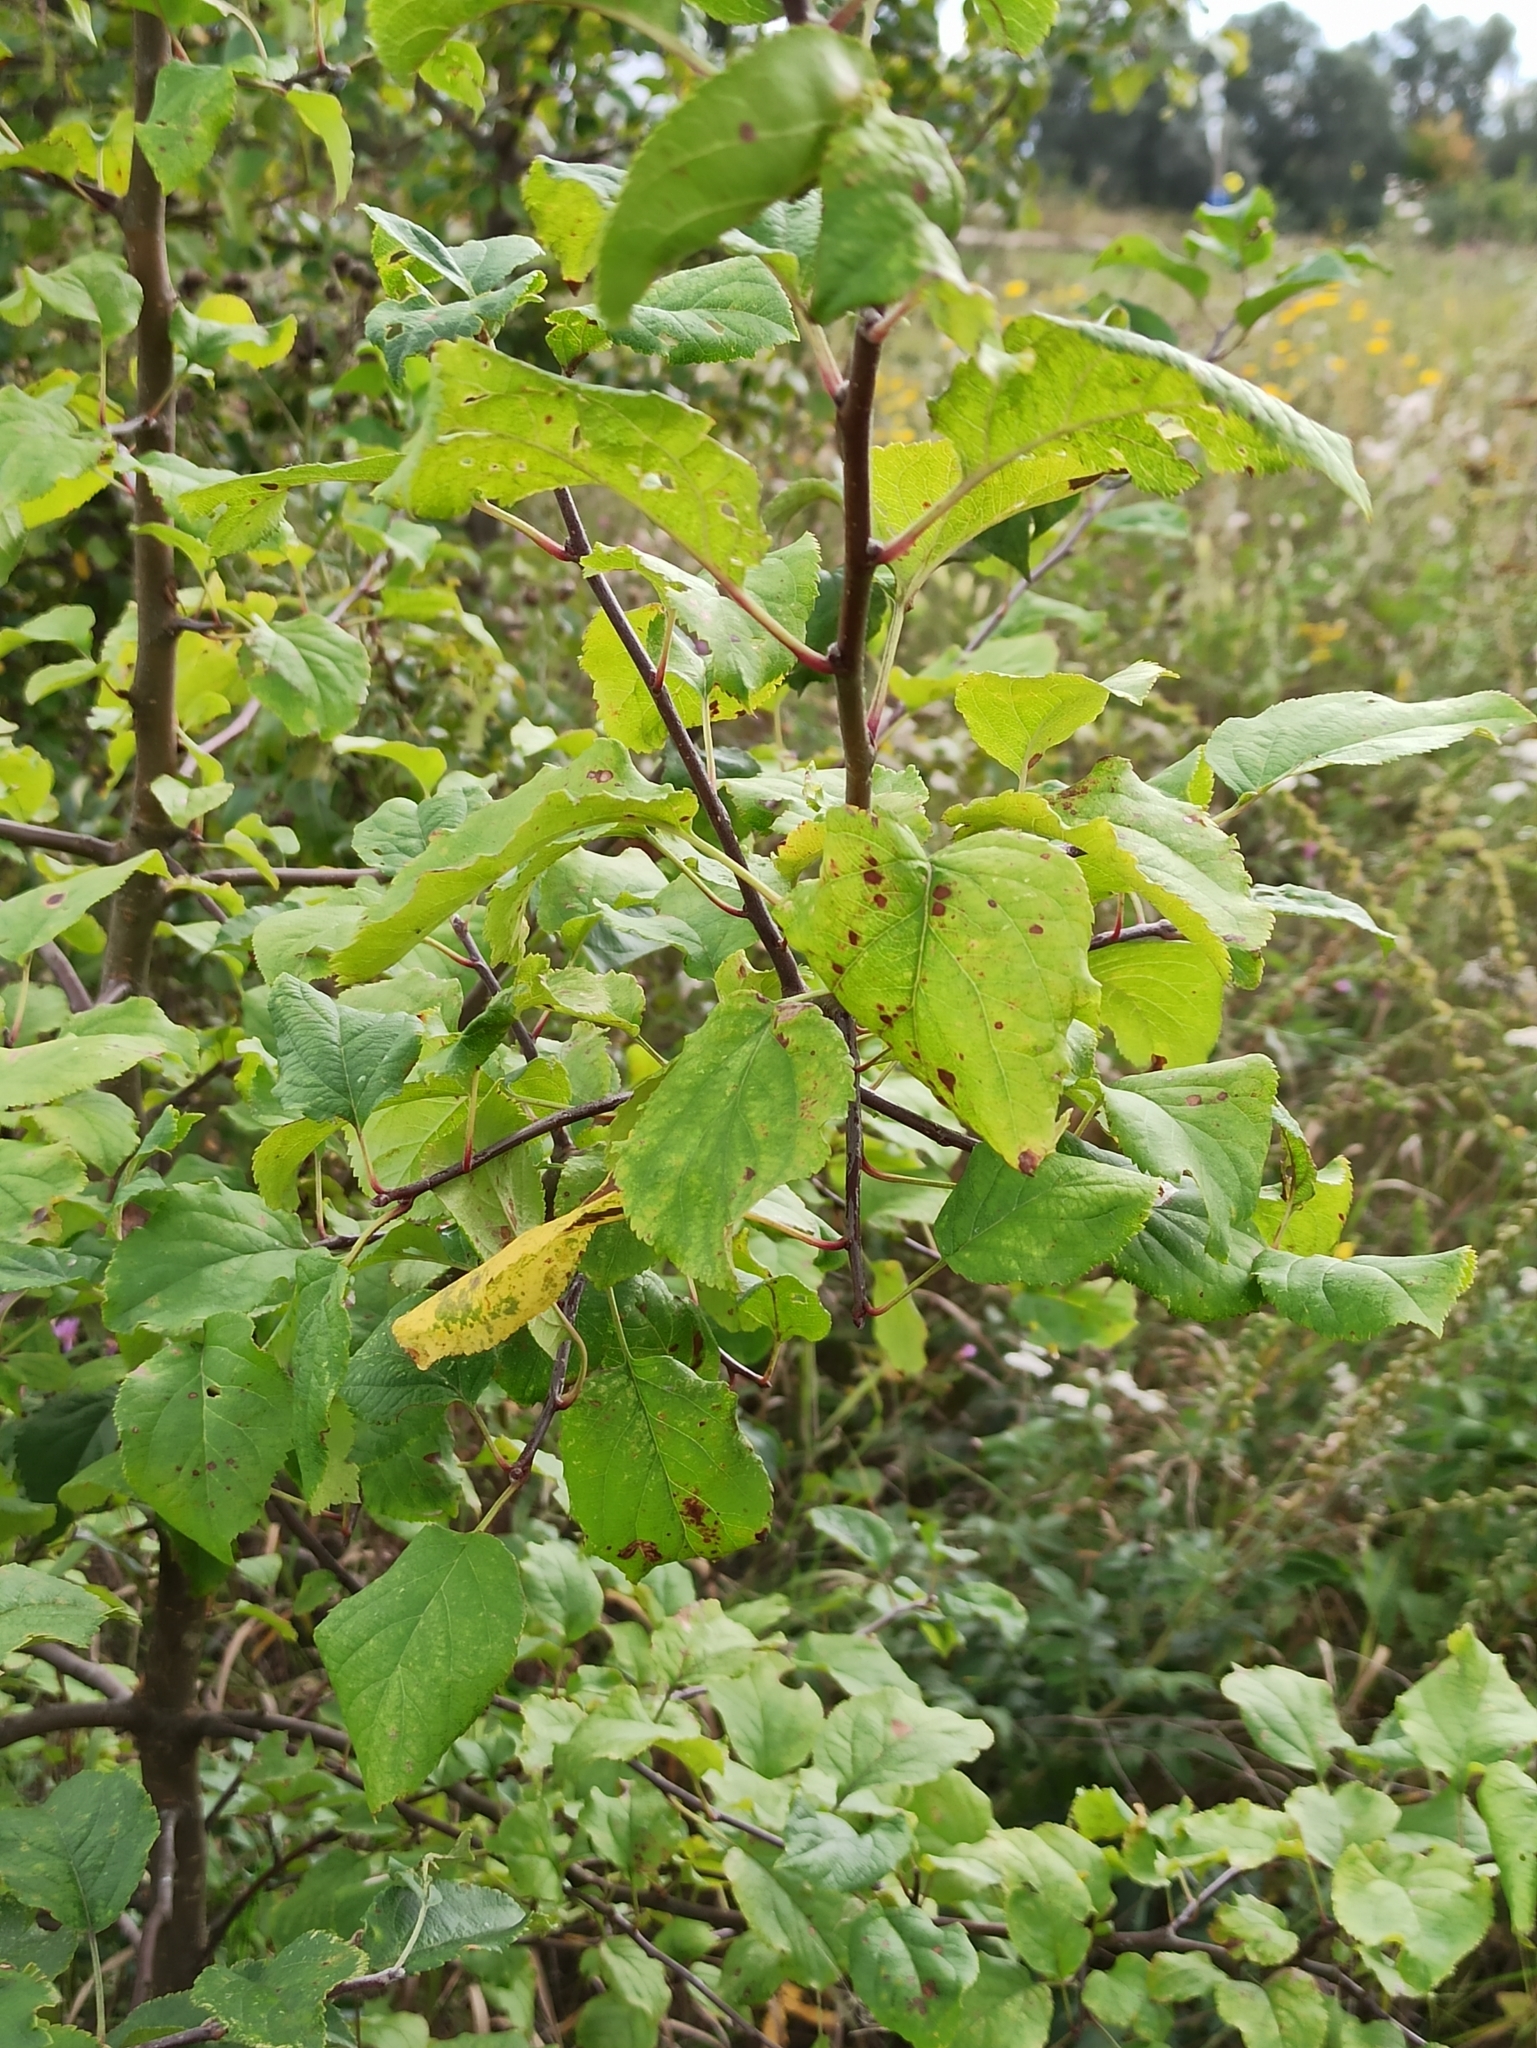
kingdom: Plantae
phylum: Tracheophyta
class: Magnoliopsida
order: Rosales
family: Rosaceae
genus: Malus
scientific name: Malus domestica
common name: Apple
